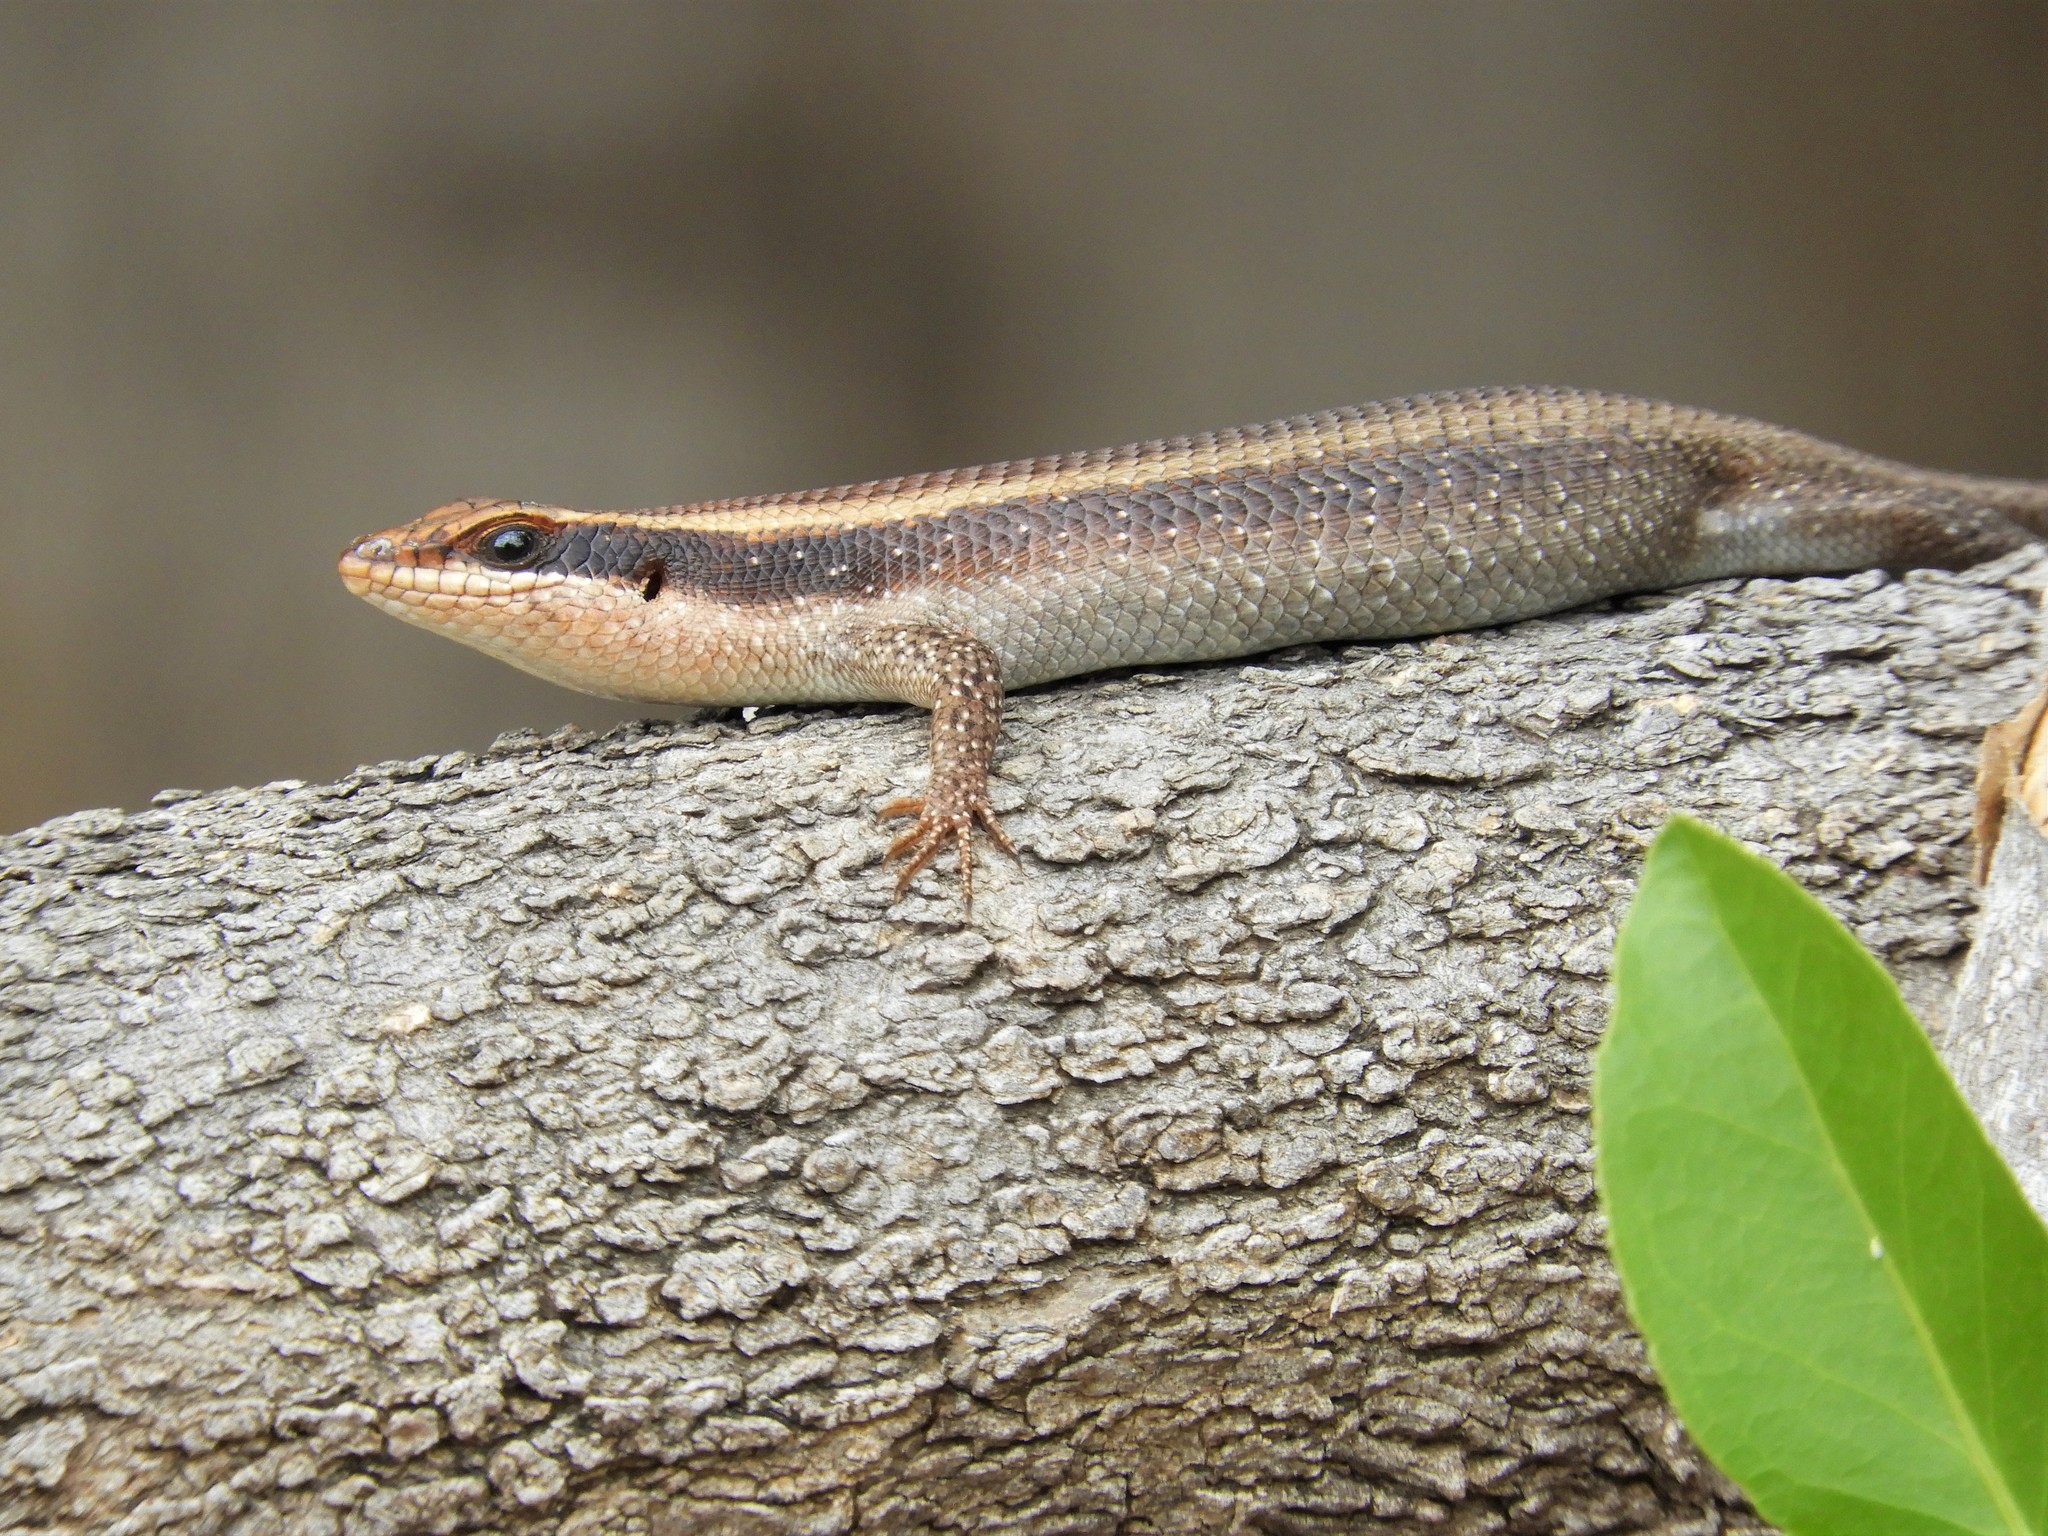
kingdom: Animalia
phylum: Chordata
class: Squamata
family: Scincidae
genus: Trachylepis
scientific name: Trachylepis striata
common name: African striped mabuya
